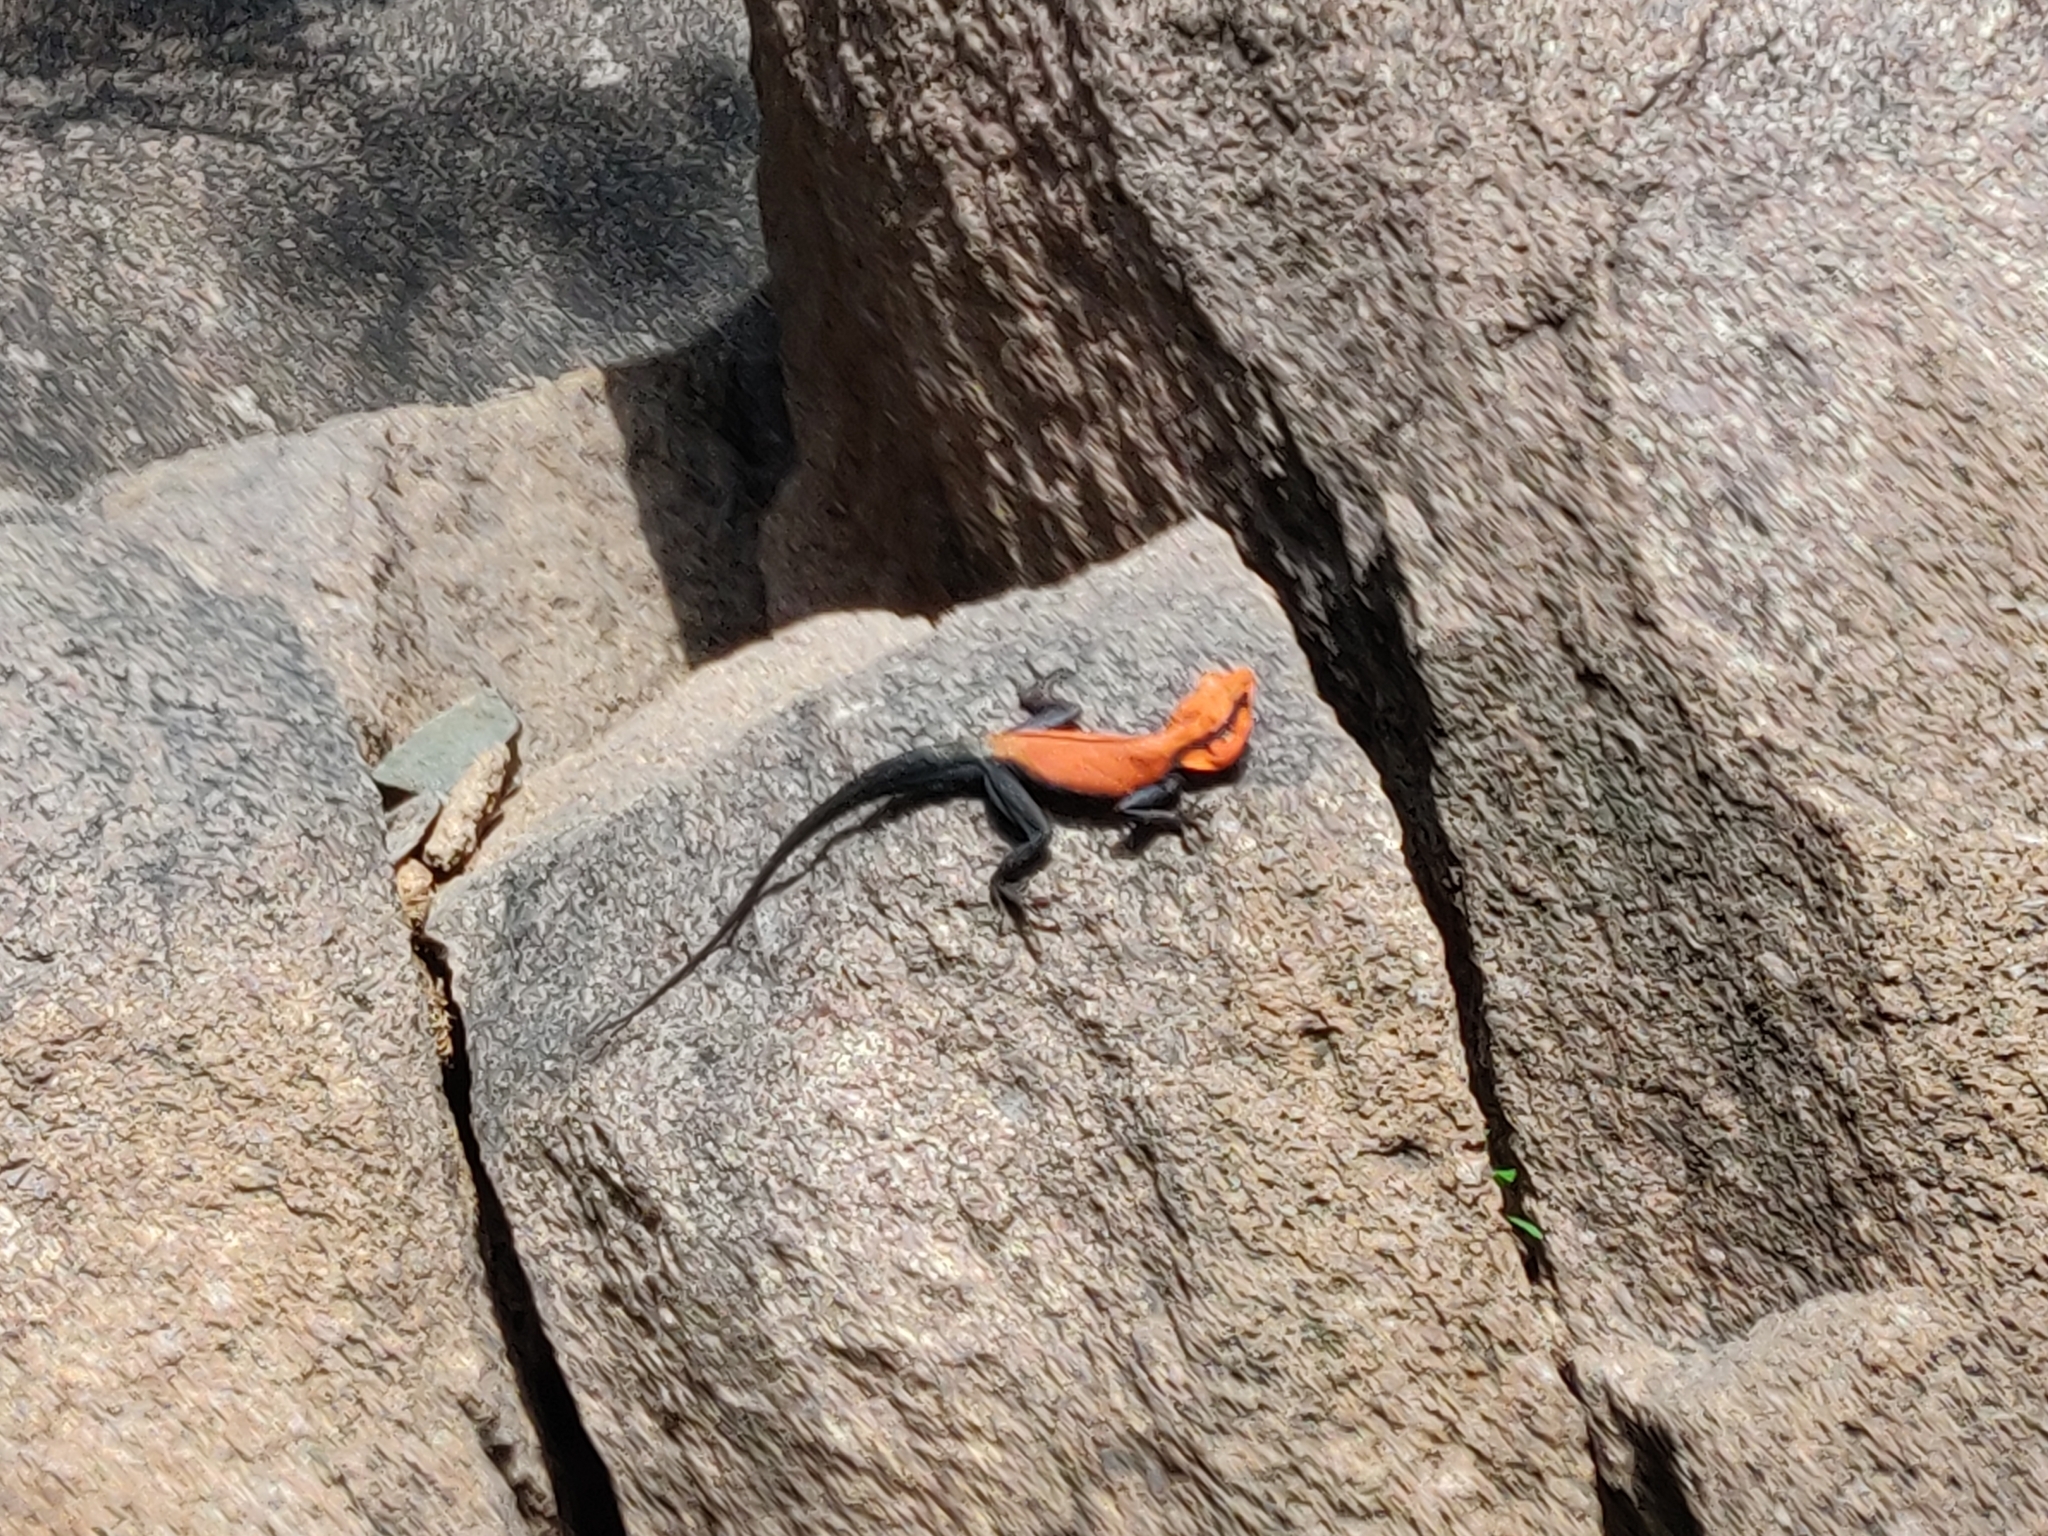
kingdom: Animalia
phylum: Chordata
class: Squamata
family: Agamidae
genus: Psammophilus
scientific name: Psammophilus dorsalis
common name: South indian rock agama
